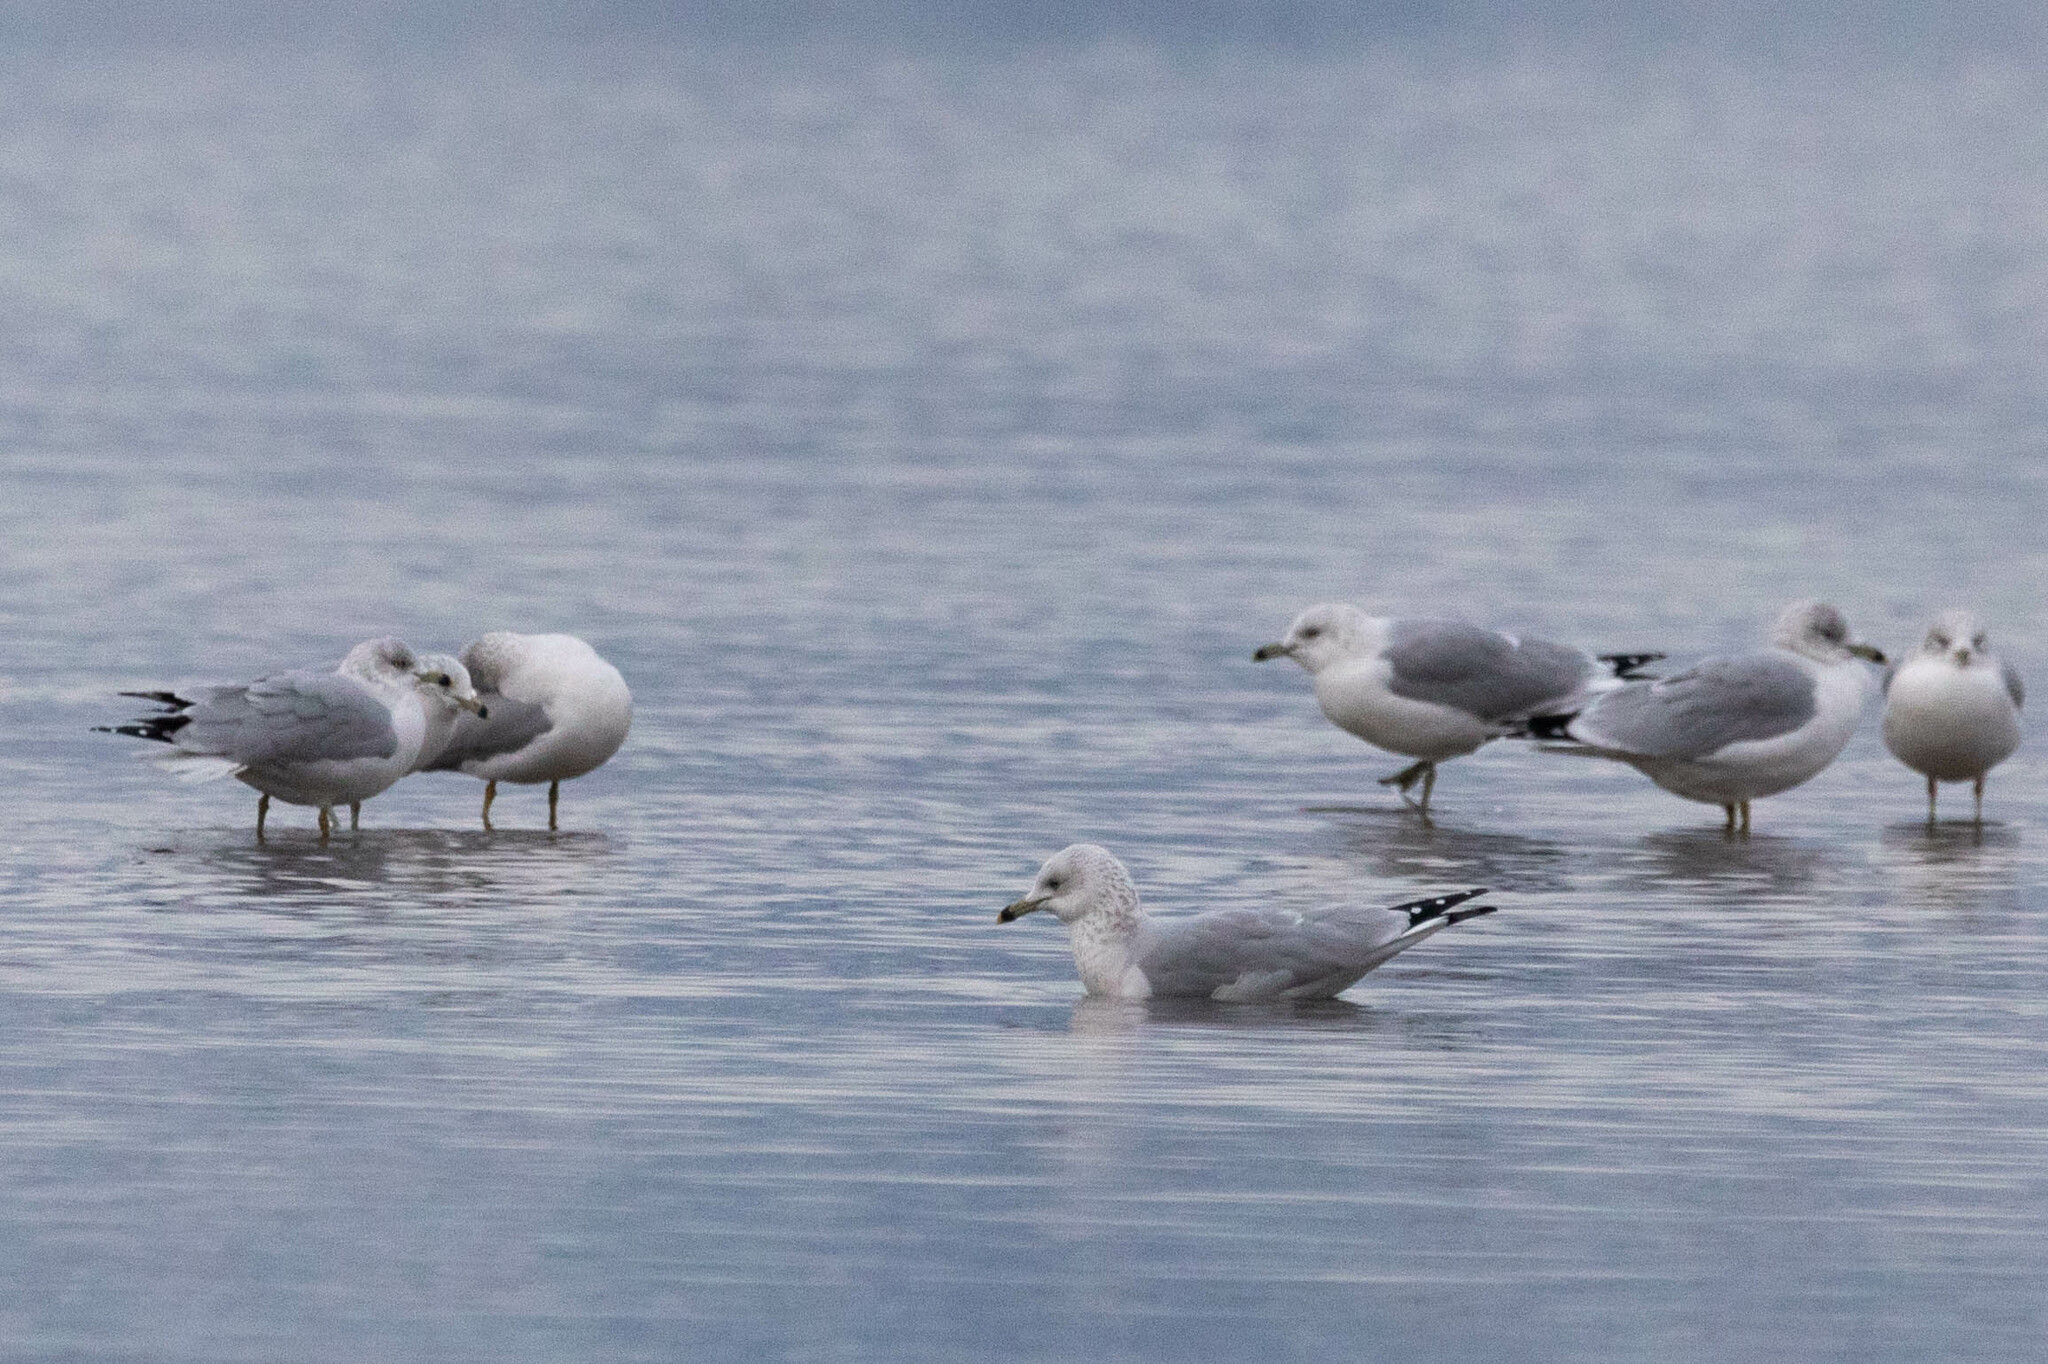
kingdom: Animalia
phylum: Chordata
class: Aves
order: Charadriiformes
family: Laridae
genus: Larus
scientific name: Larus delawarensis
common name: Ring-billed gull
